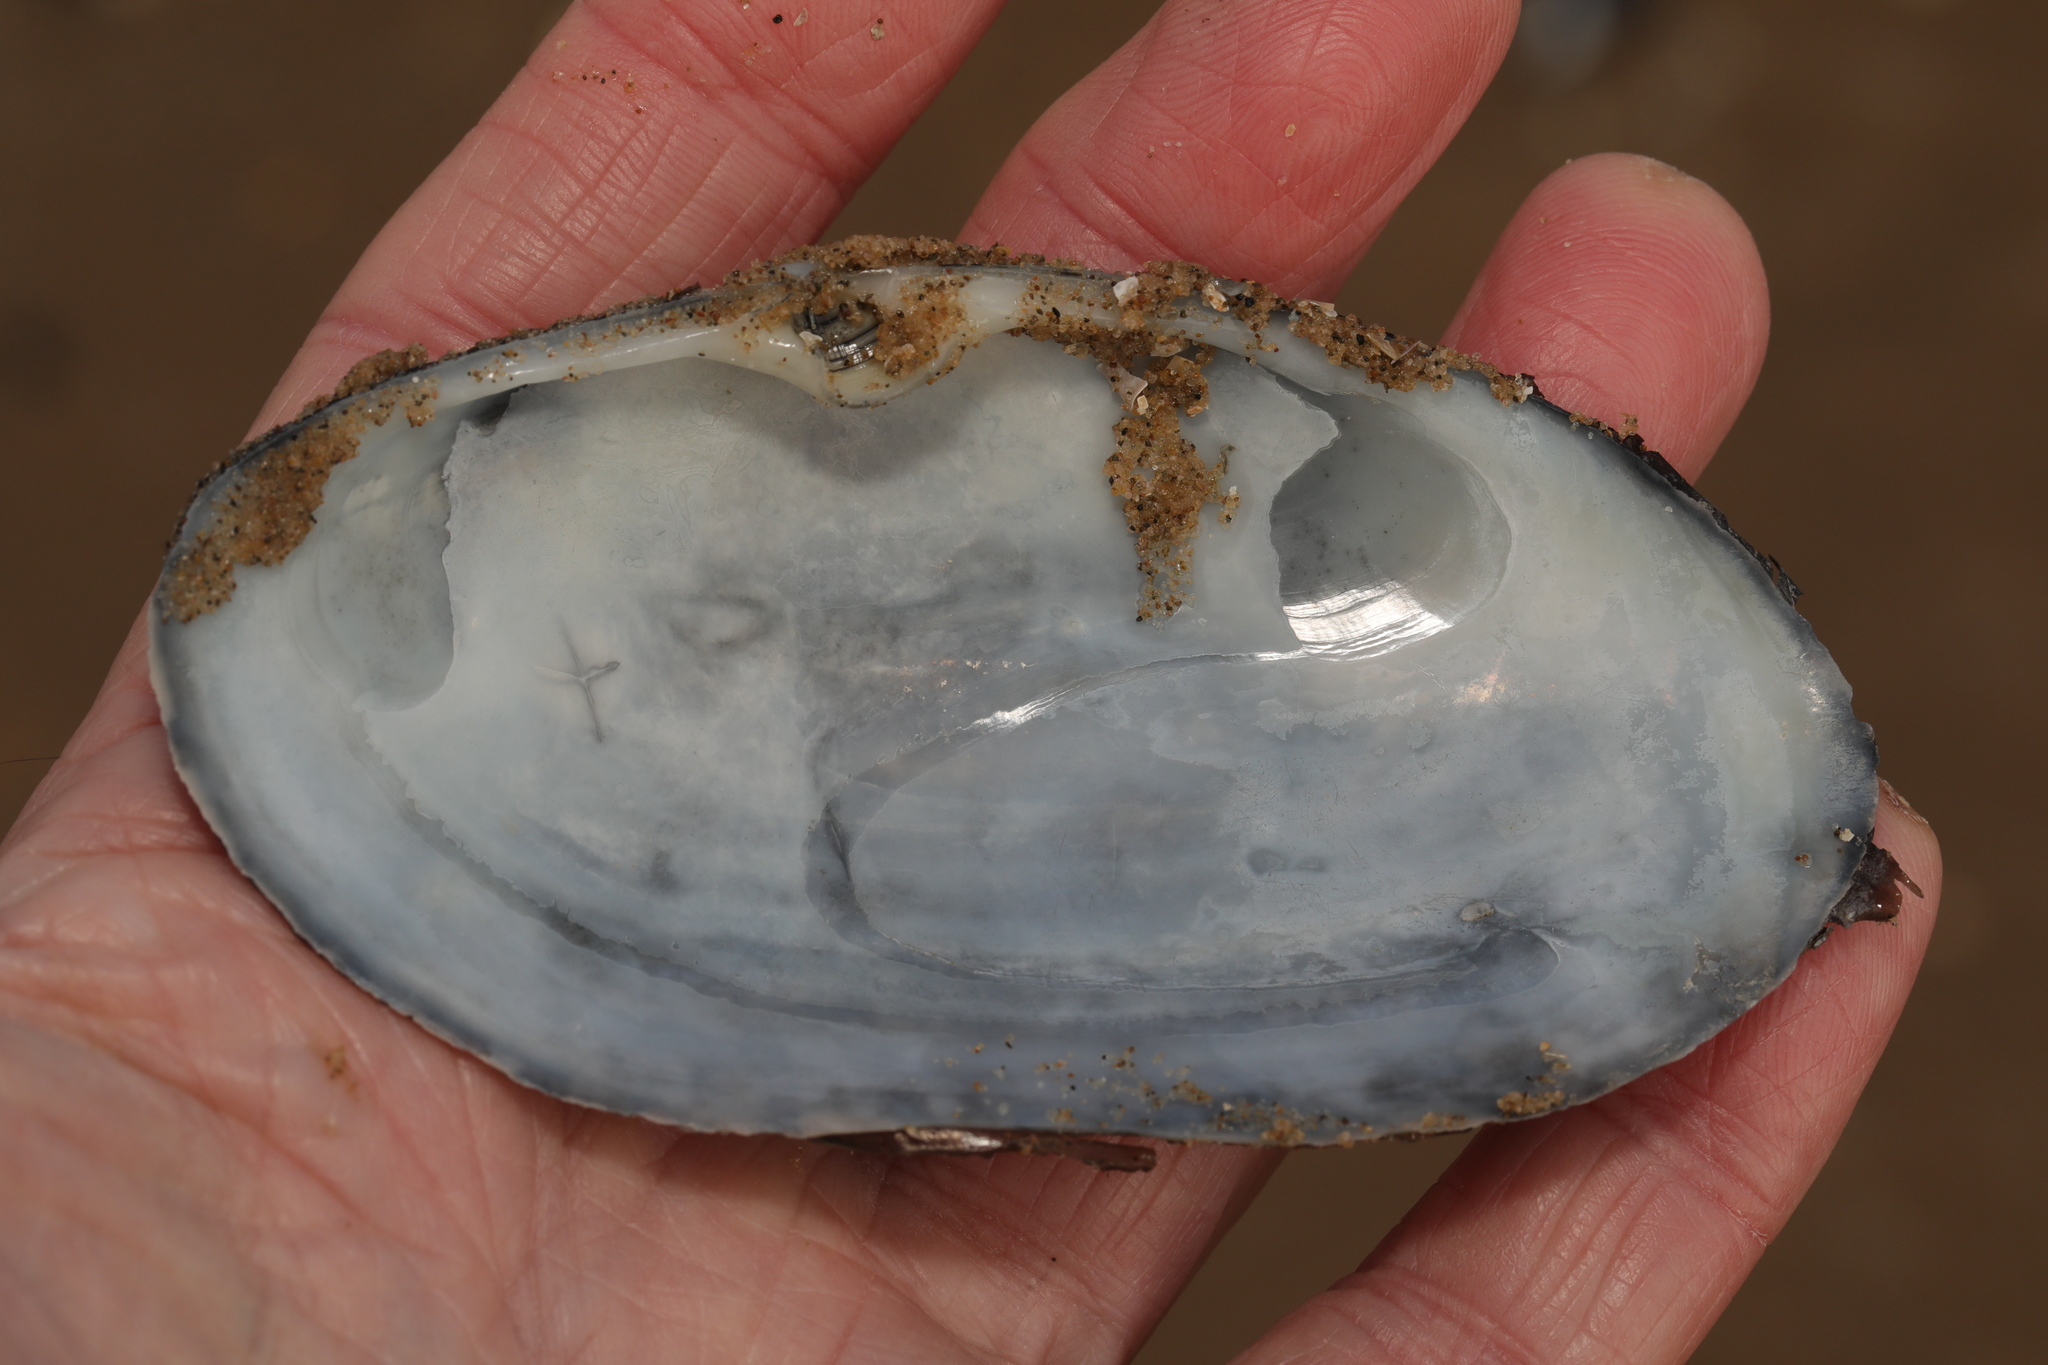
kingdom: Animalia
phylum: Mollusca
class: Bivalvia
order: Venerida
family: Mactridae
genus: Lutraria
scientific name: Lutraria lutraria
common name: Common otter shell
